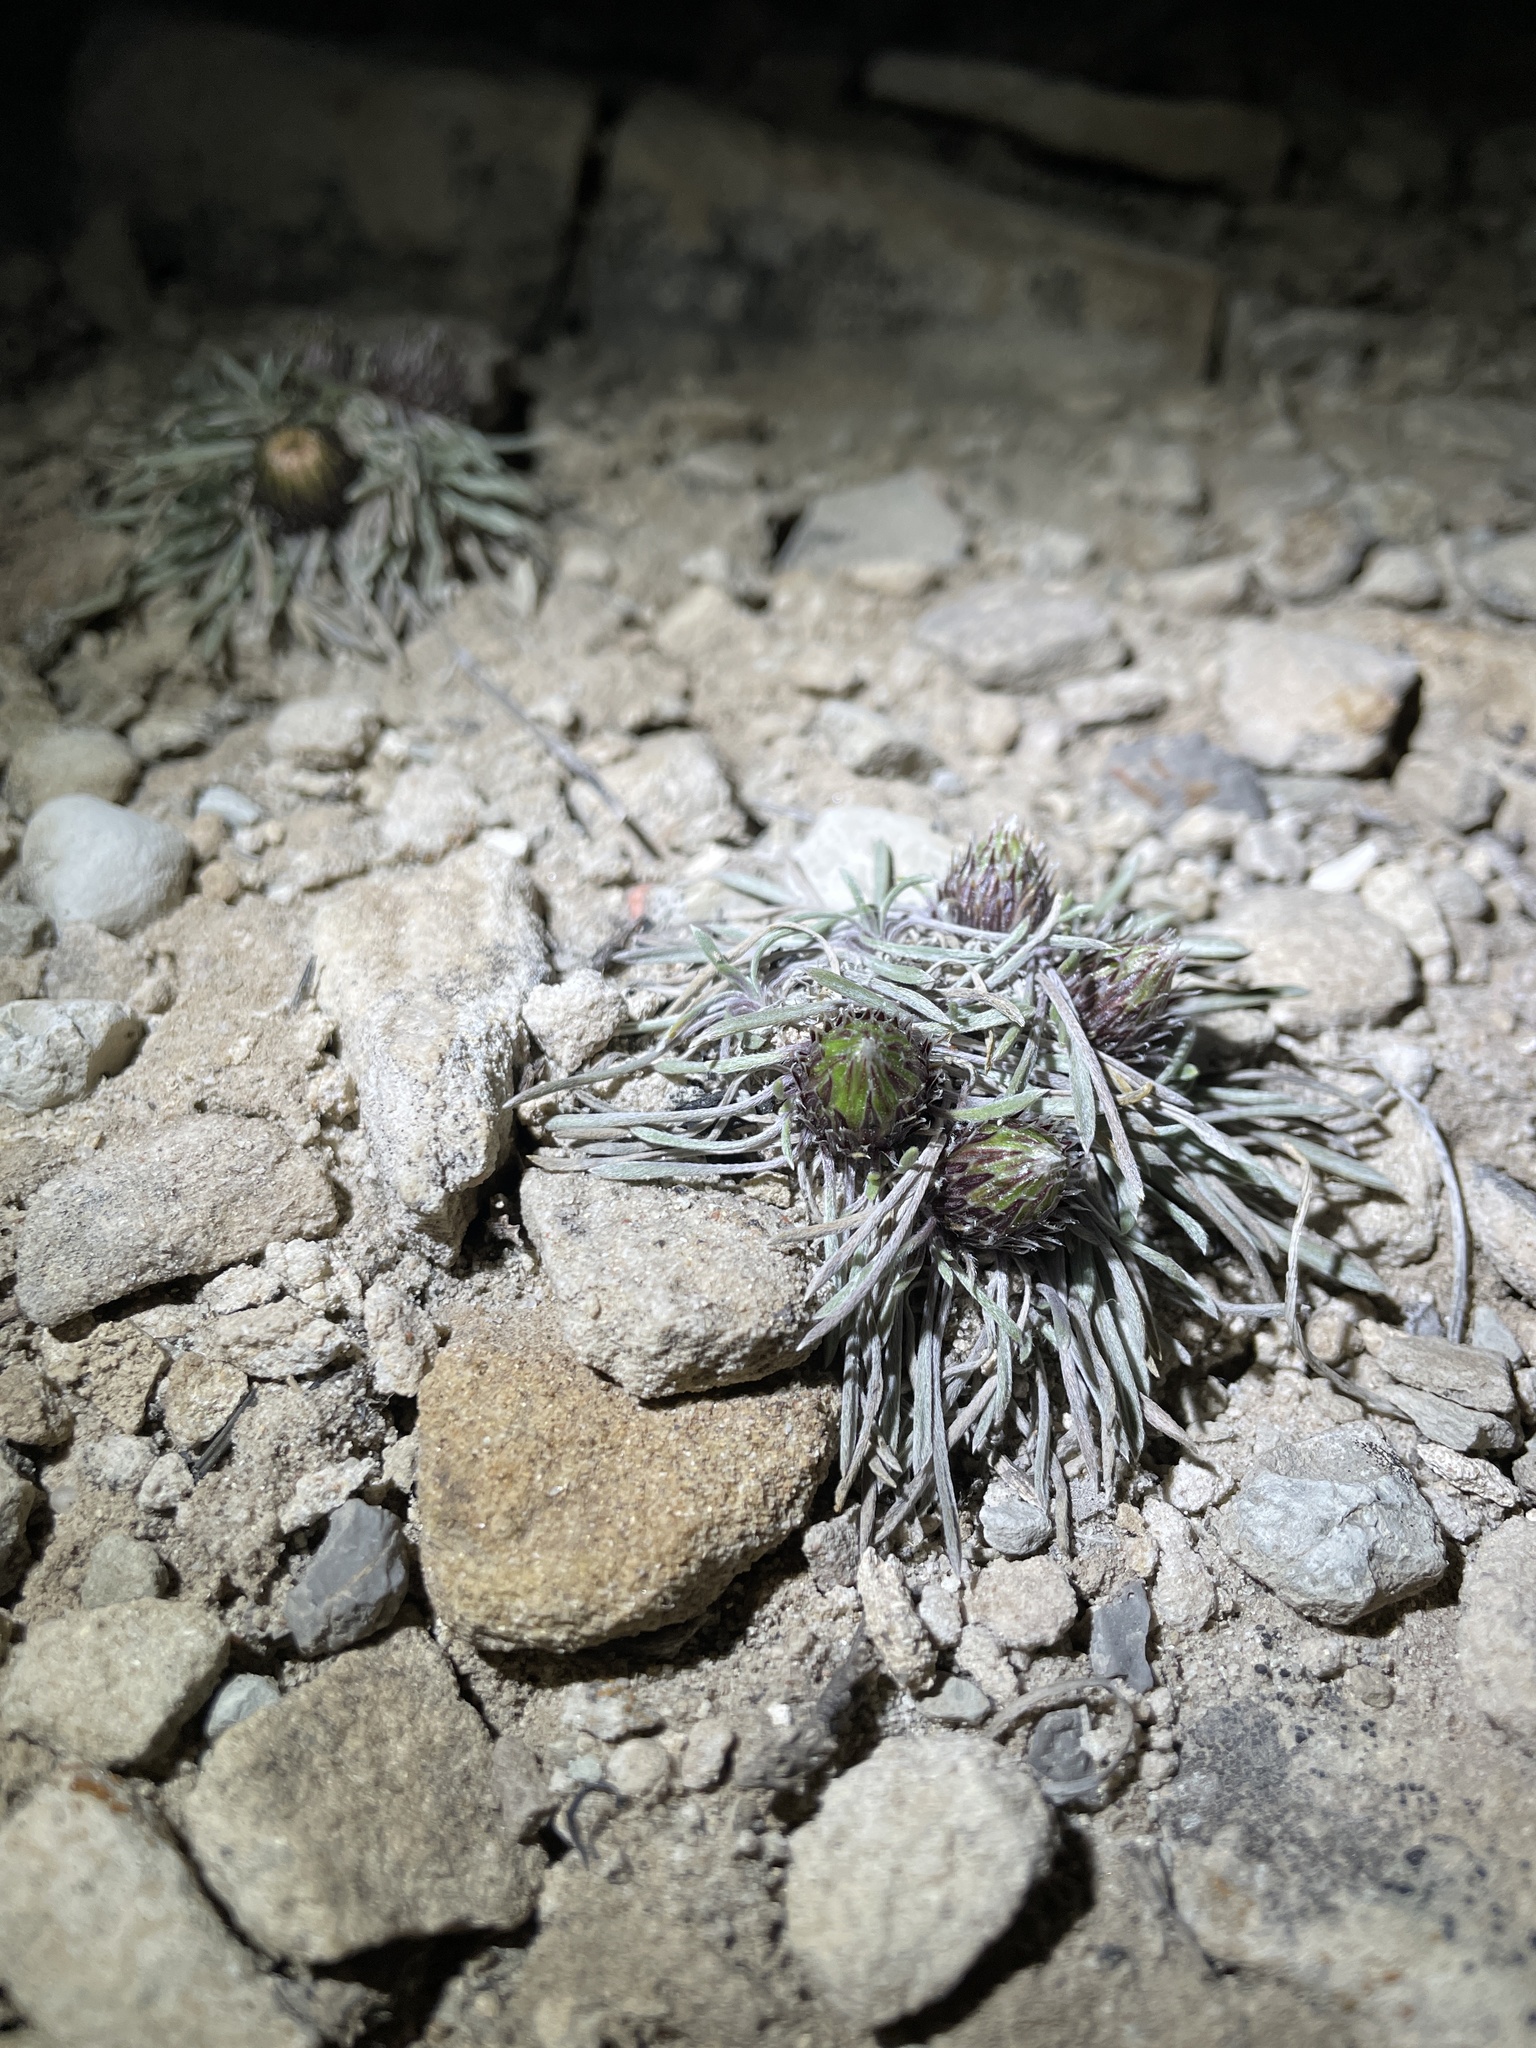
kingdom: Plantae
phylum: Tracheophyta
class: Magnoliopsida
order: Asterales
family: Asteraceae
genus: Townsendia
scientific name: Townsendia hookeri
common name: Hooker's townsend daisy
